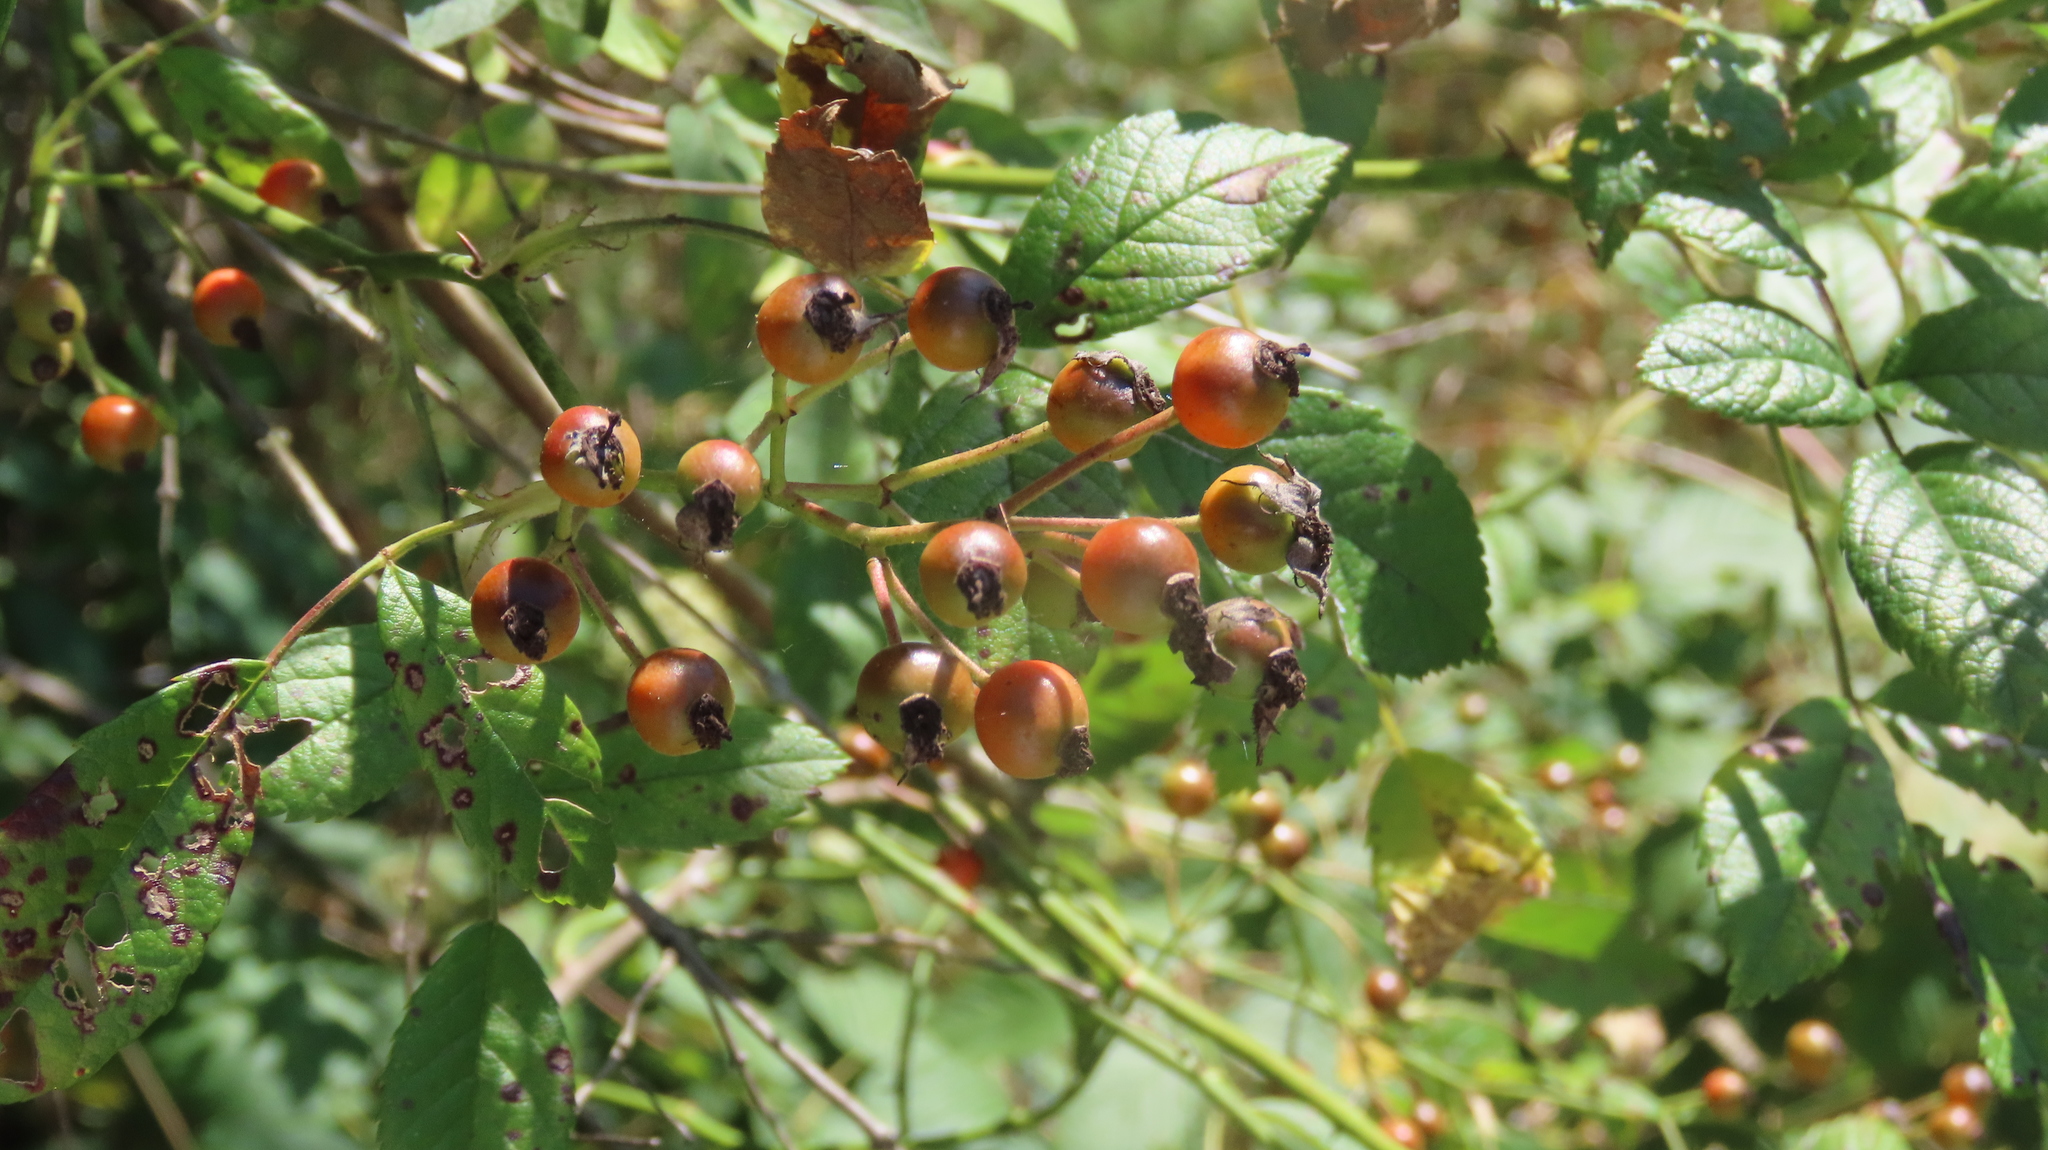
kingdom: Plantae
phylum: Tracheophyta
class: Magnoliopsida
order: Rosales
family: Rosaceae
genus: Rosa
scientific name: Rosa multiflora
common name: Multiflora rose
